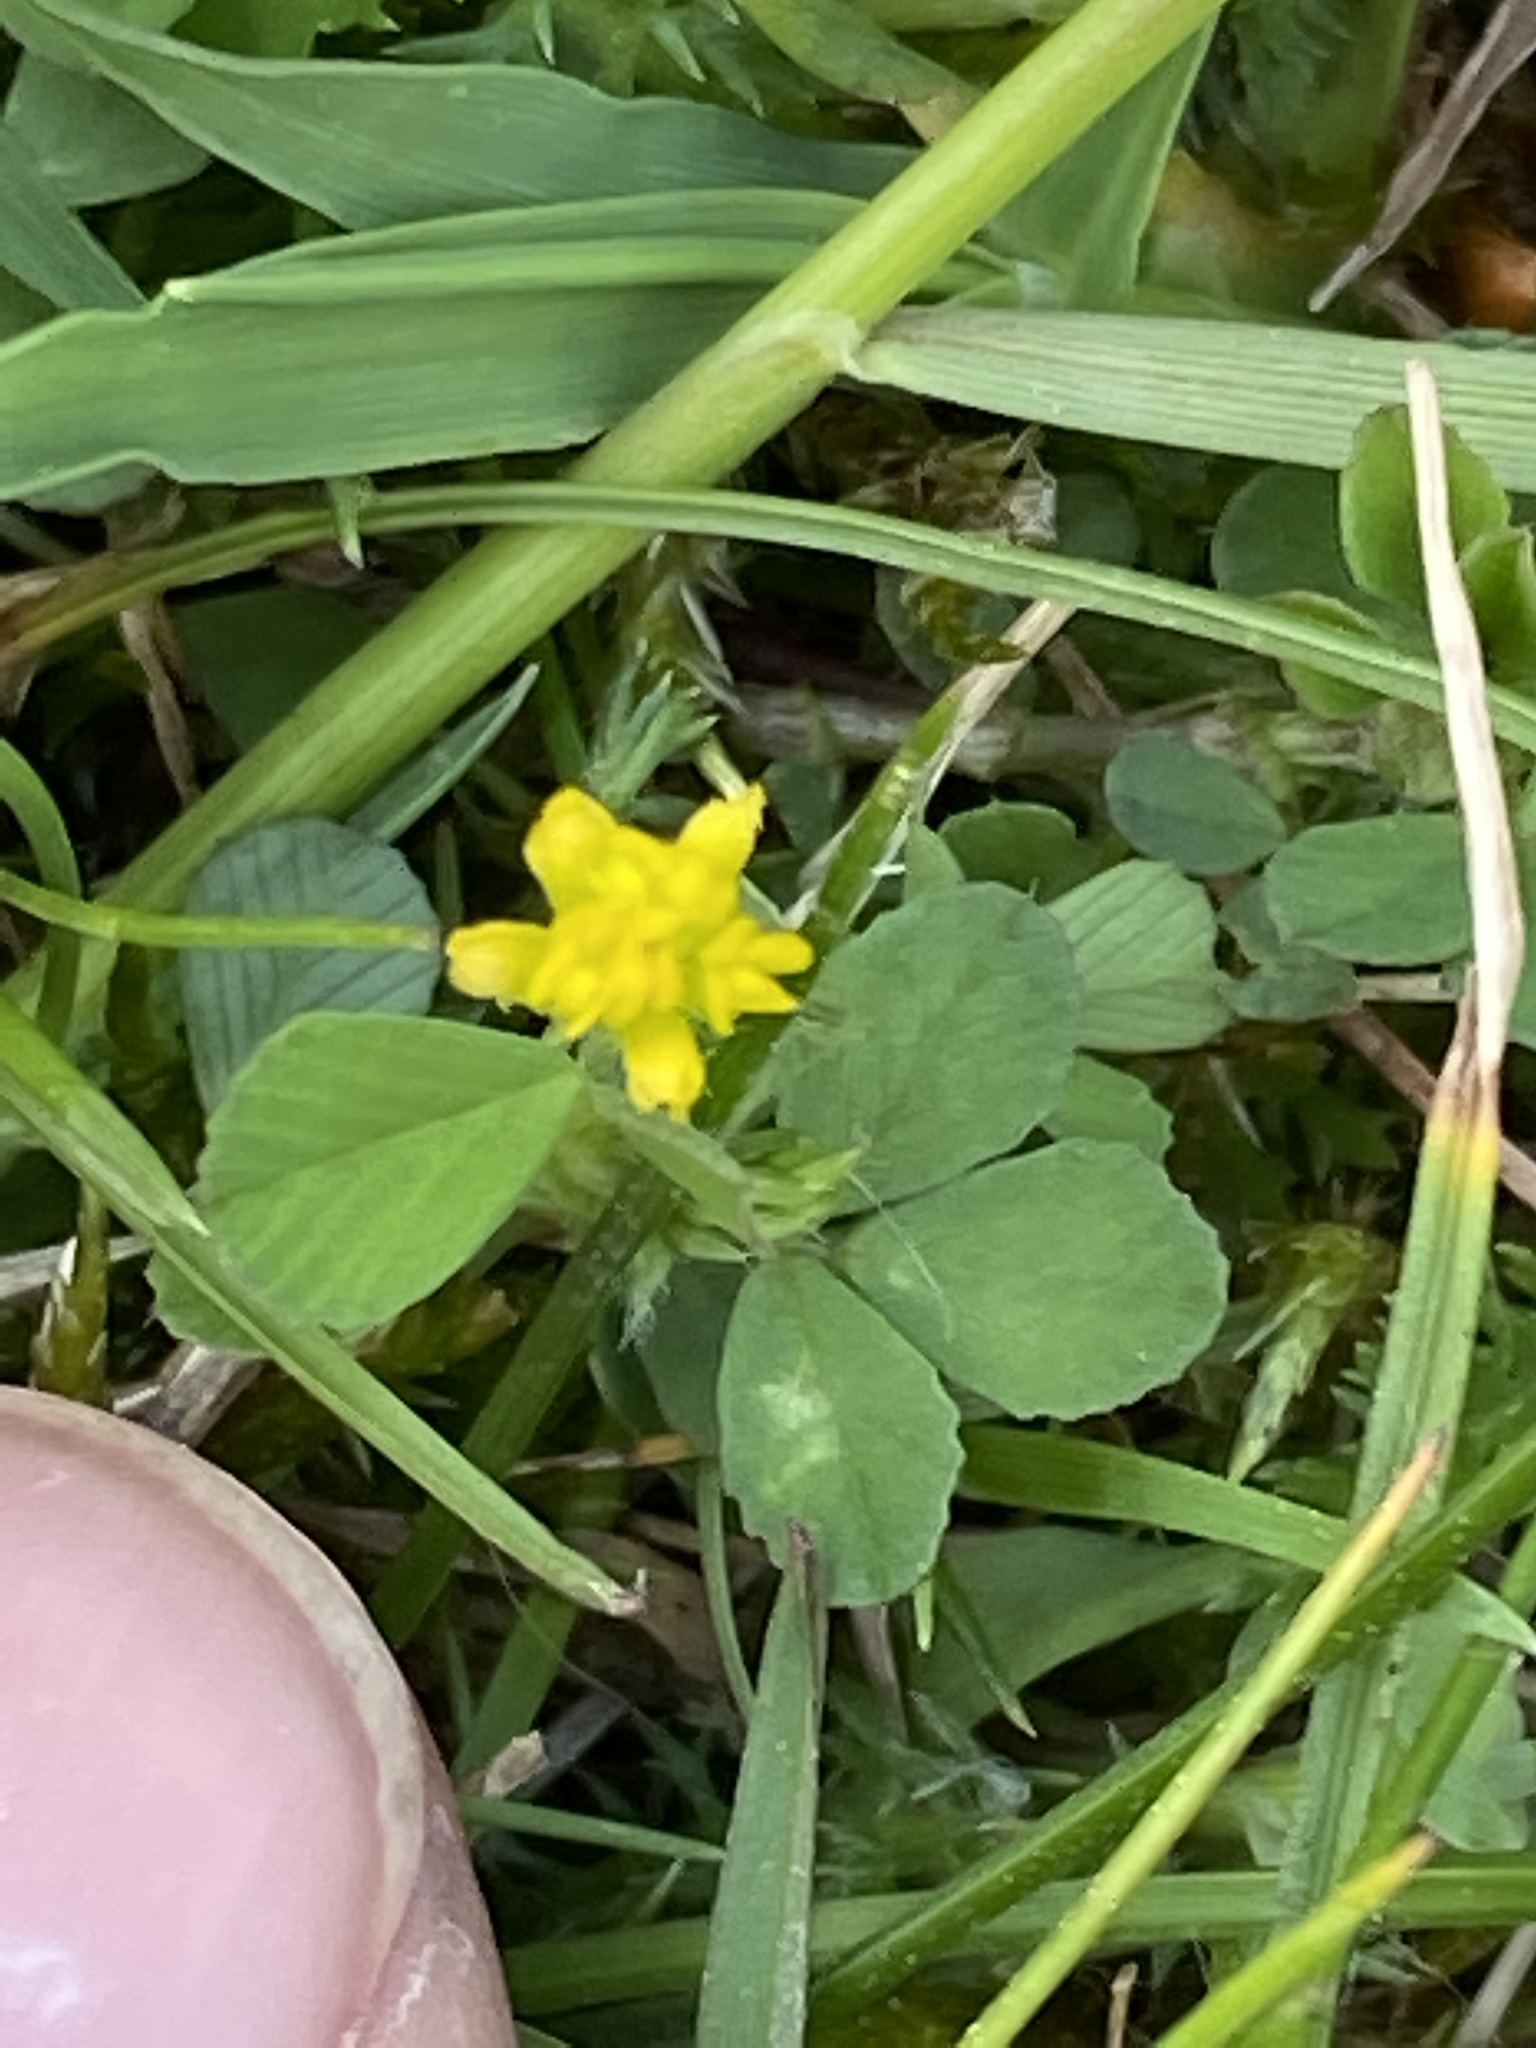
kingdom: Plantae
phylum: Tracheophyta
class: Magnoliopsida
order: Fabales
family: Fabaceae
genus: Trifolium
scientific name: Trifolium dubium
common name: Suckling clover
